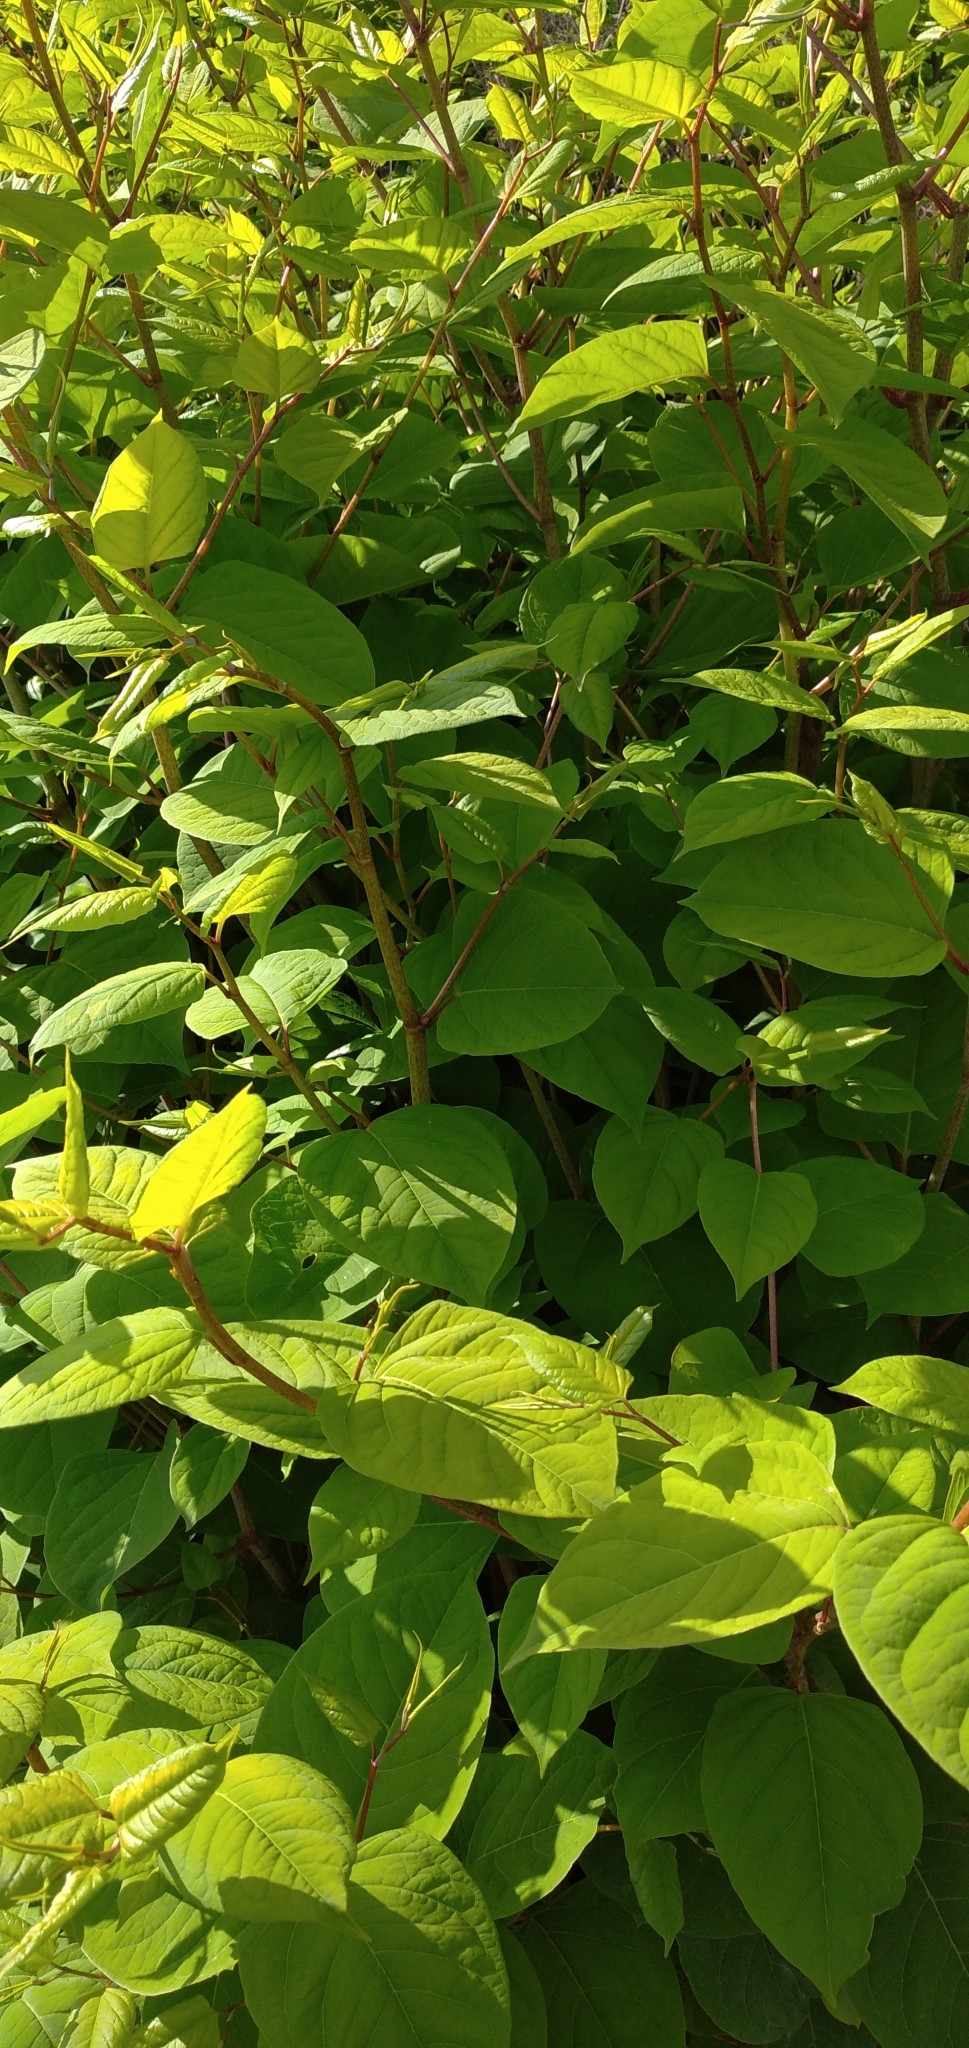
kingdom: Plantae
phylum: Tracheophyta
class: Magnoliopsida
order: Caryophyllales
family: Polygonaceae
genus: Reynoutria
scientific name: Reynoutria japonica
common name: Japanese knotweed
